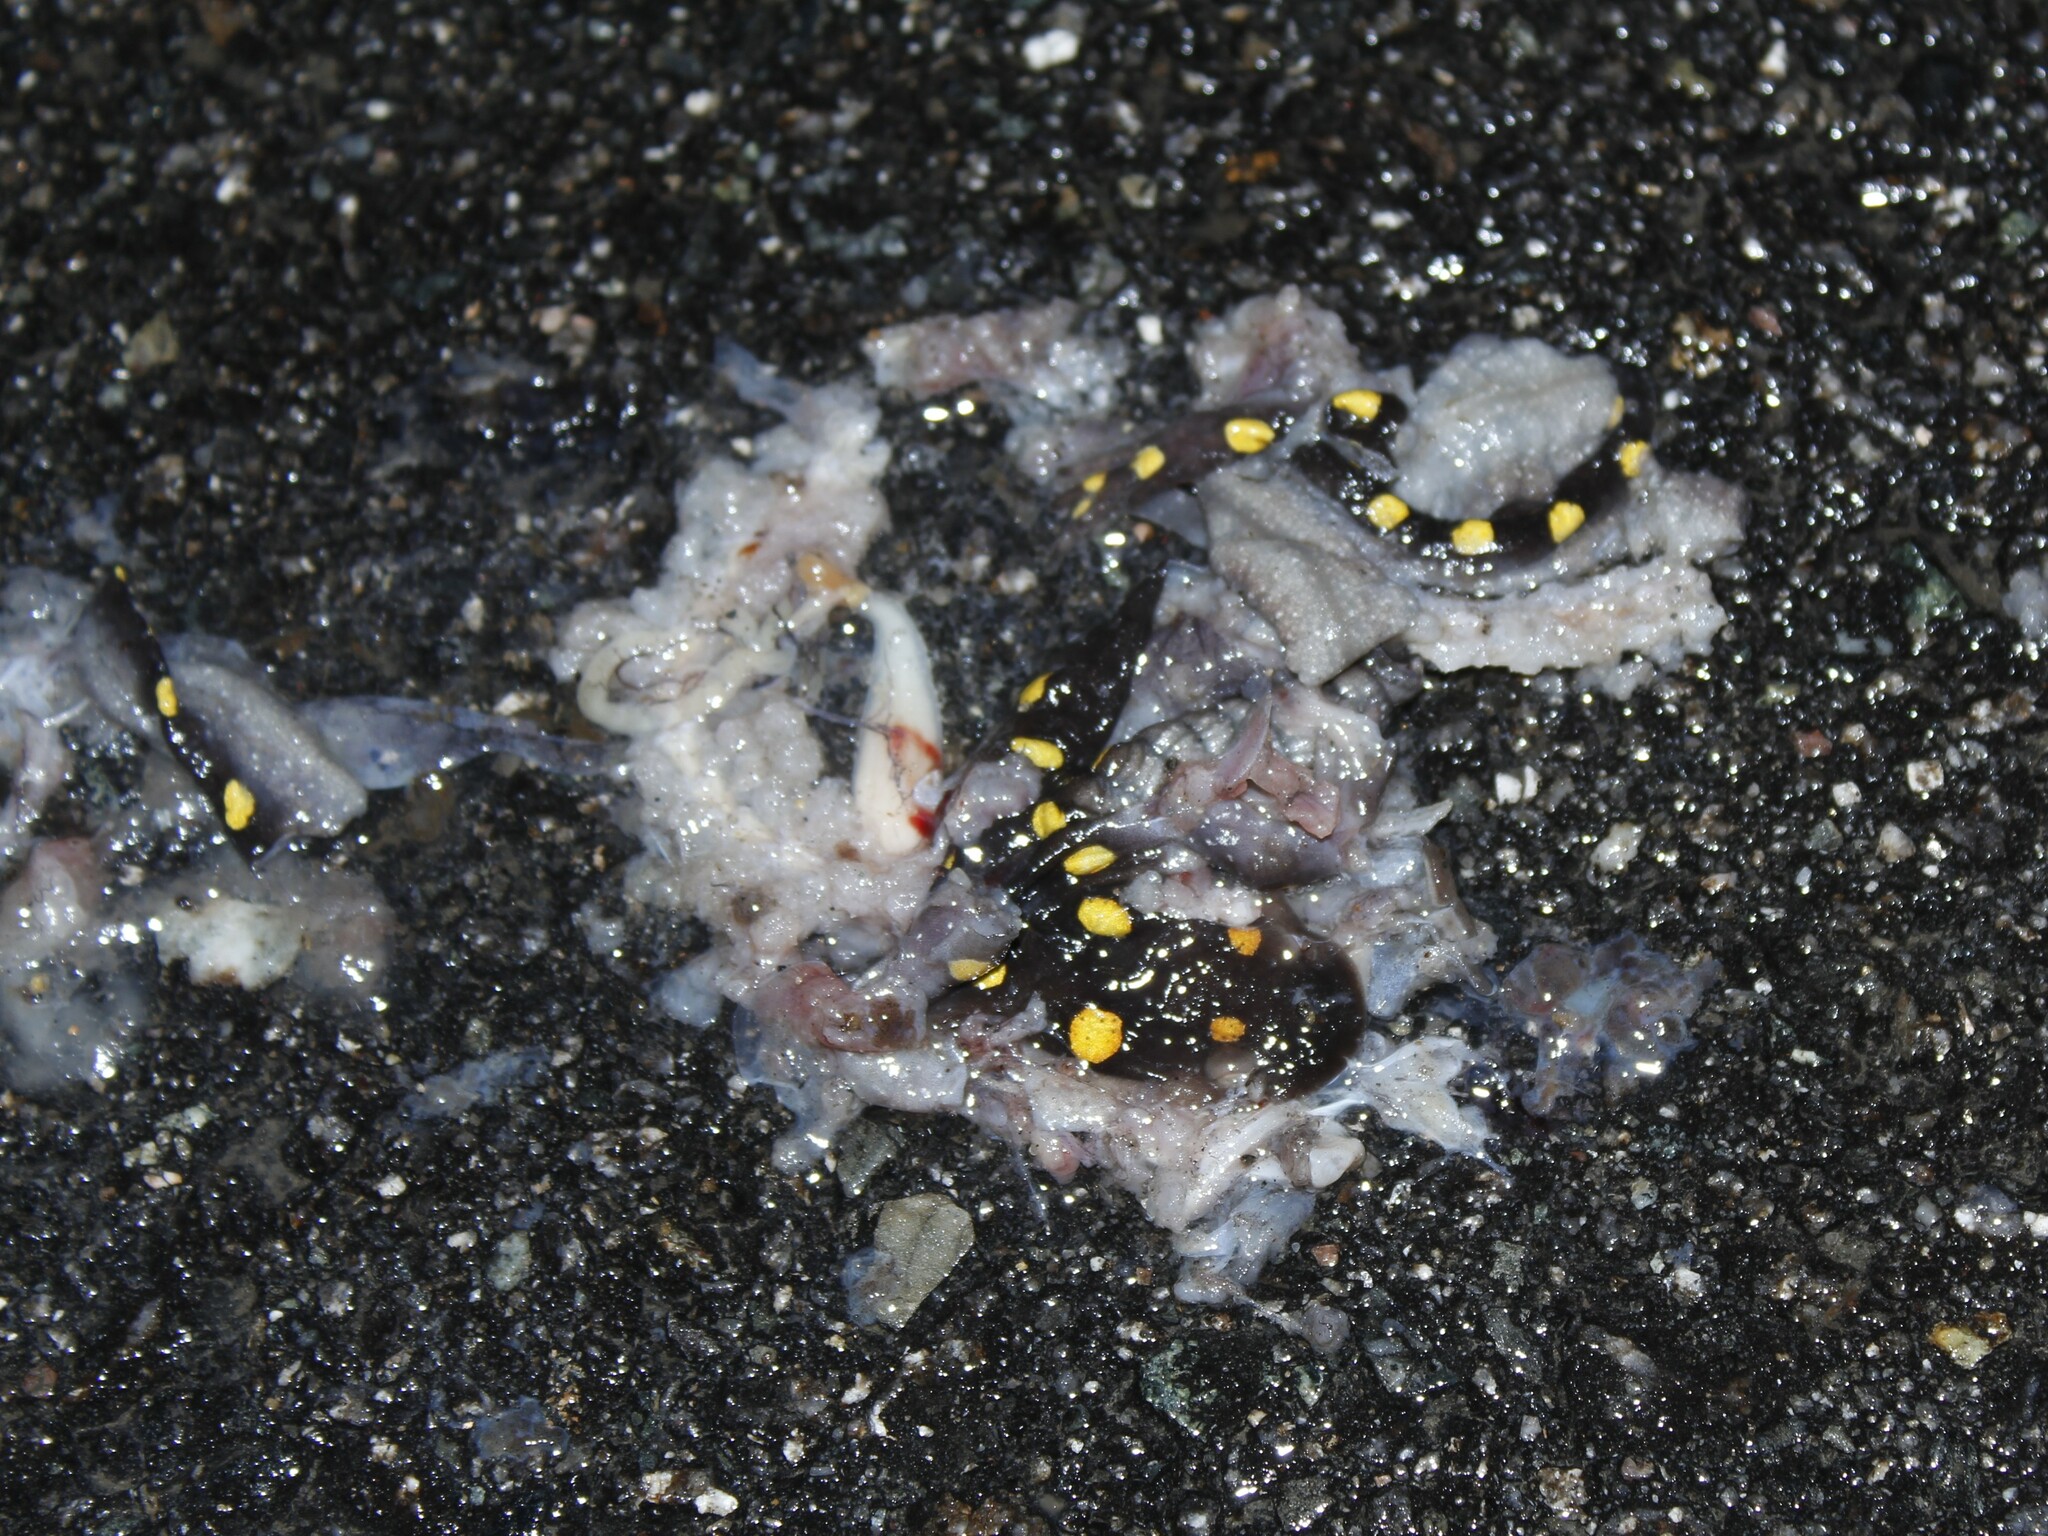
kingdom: Animalia
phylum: Chordata
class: Amphibia
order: Caudata
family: Ambystomatidae
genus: Ambystoma
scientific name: Ambystoma maculatum
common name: Spotted salamander
